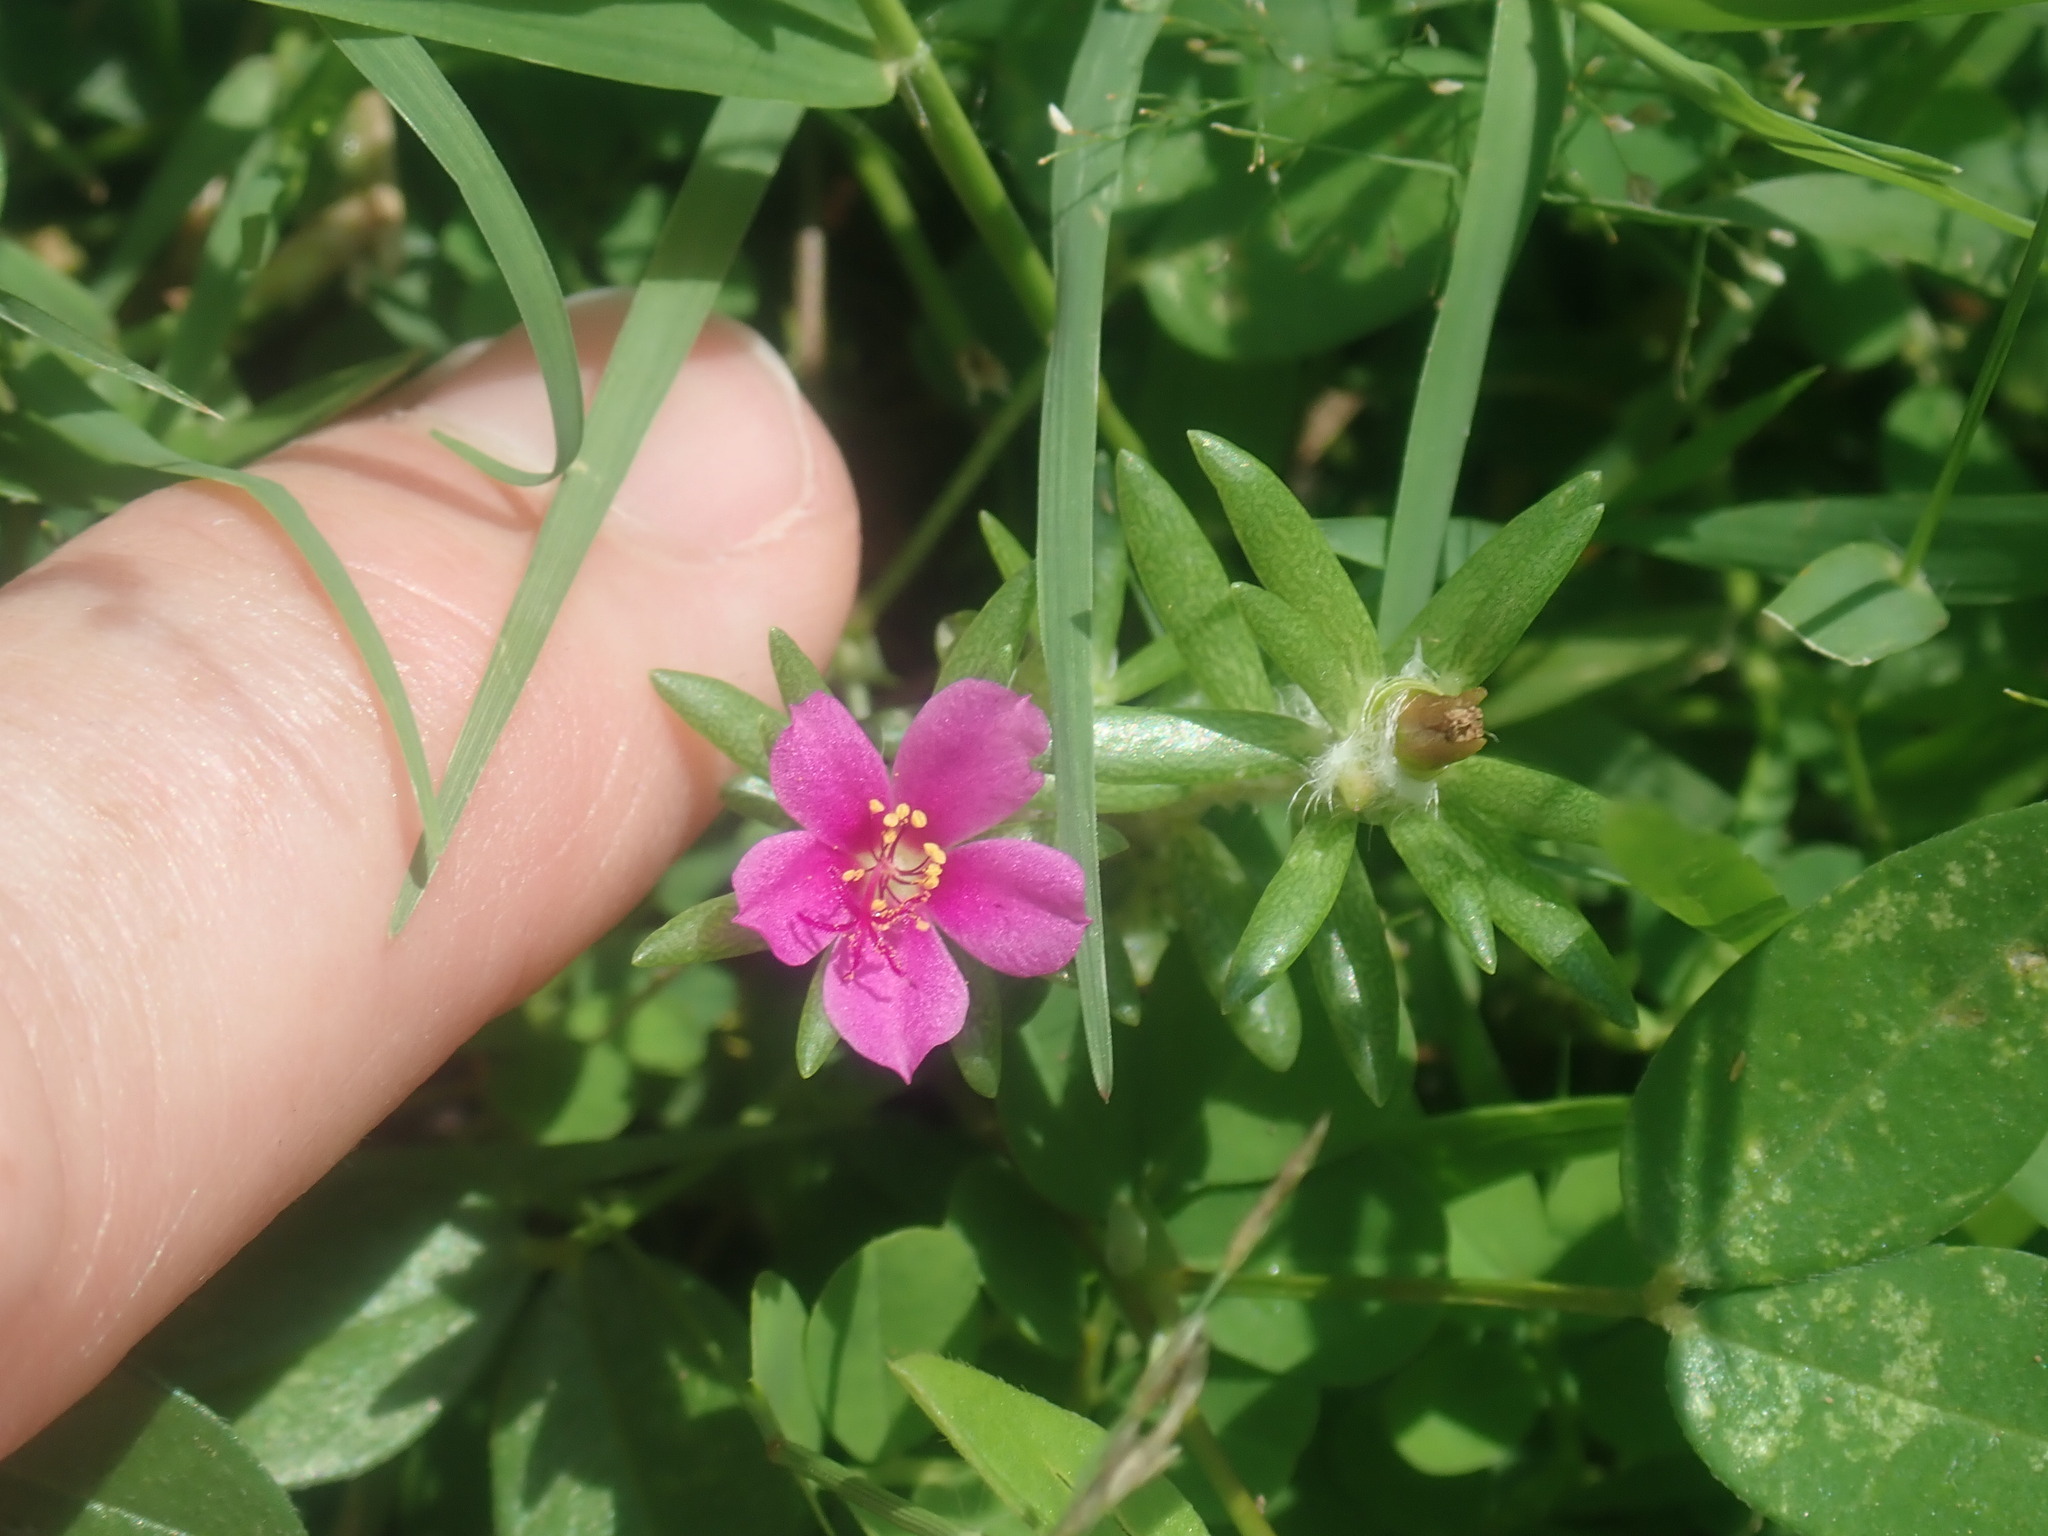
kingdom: Plantae
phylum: Tracheophyta
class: Magnoliopsida
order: Caryophyllales
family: Portulacaceae
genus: Portulaca
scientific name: Portulaca pilosa
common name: Kiss me quick
